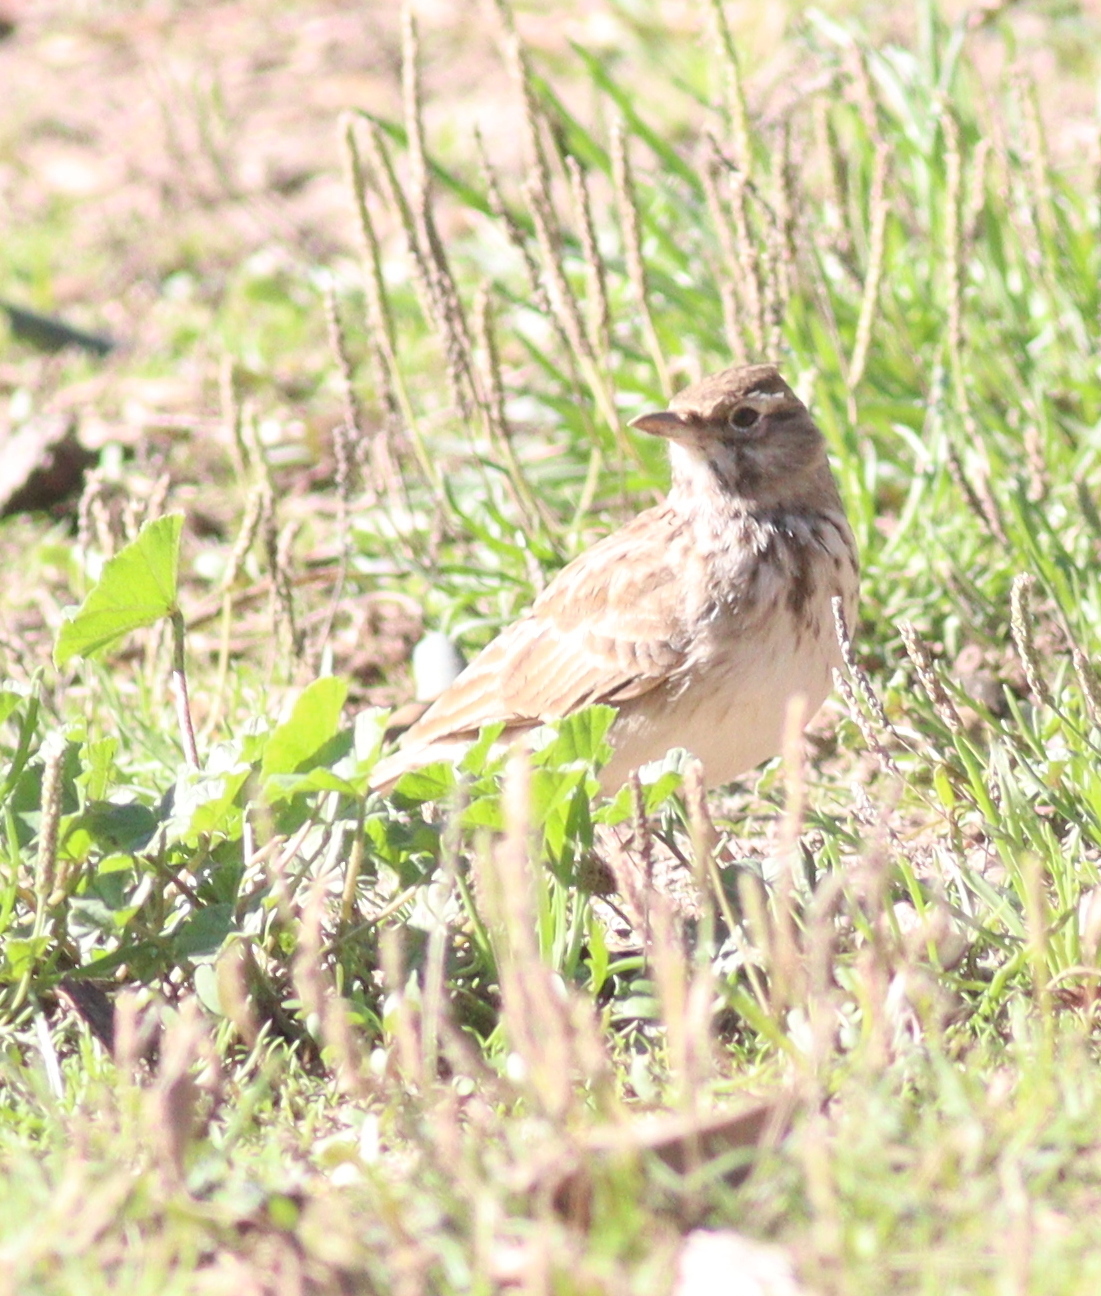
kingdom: Animalia
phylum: Chordata
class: Aves
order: Passeriformes
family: Alaudidae
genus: Galerida
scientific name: Galerida cristata
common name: Crested lark
